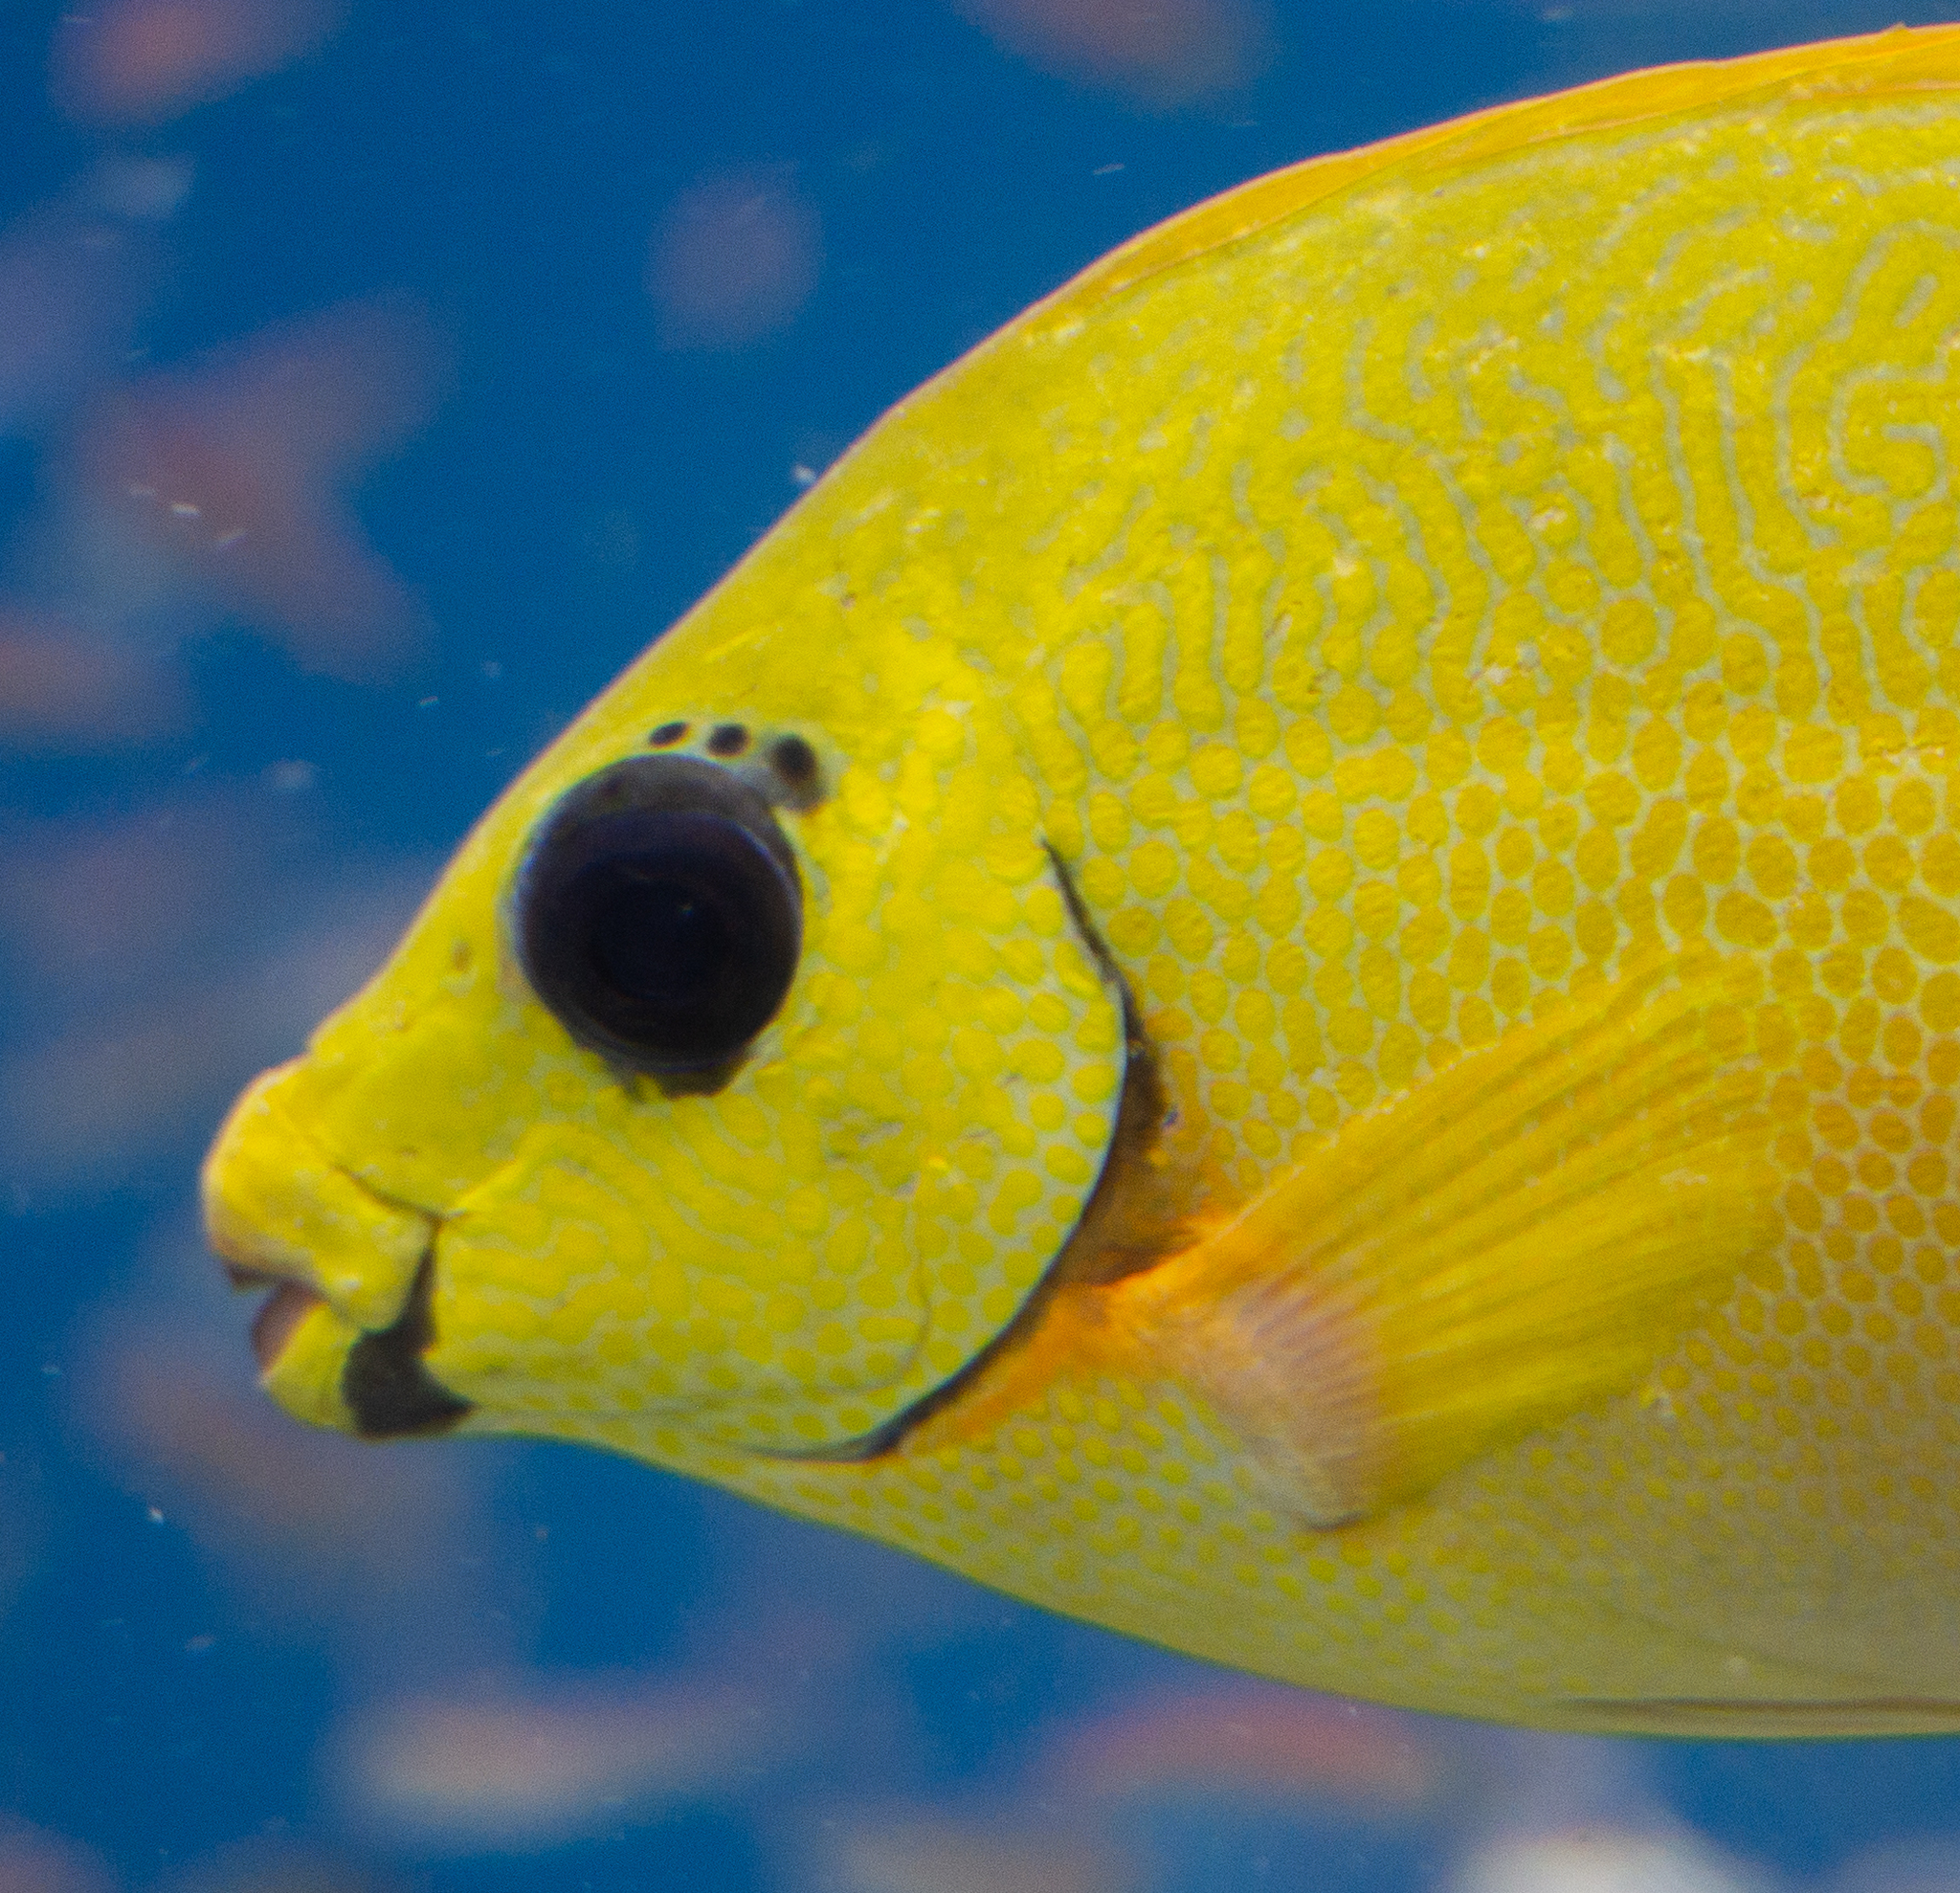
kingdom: Animalia
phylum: Chordata
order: Perciformes
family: Siganidae
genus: Siganus
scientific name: Siganus puelloides
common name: Blackeye rabbitfish
